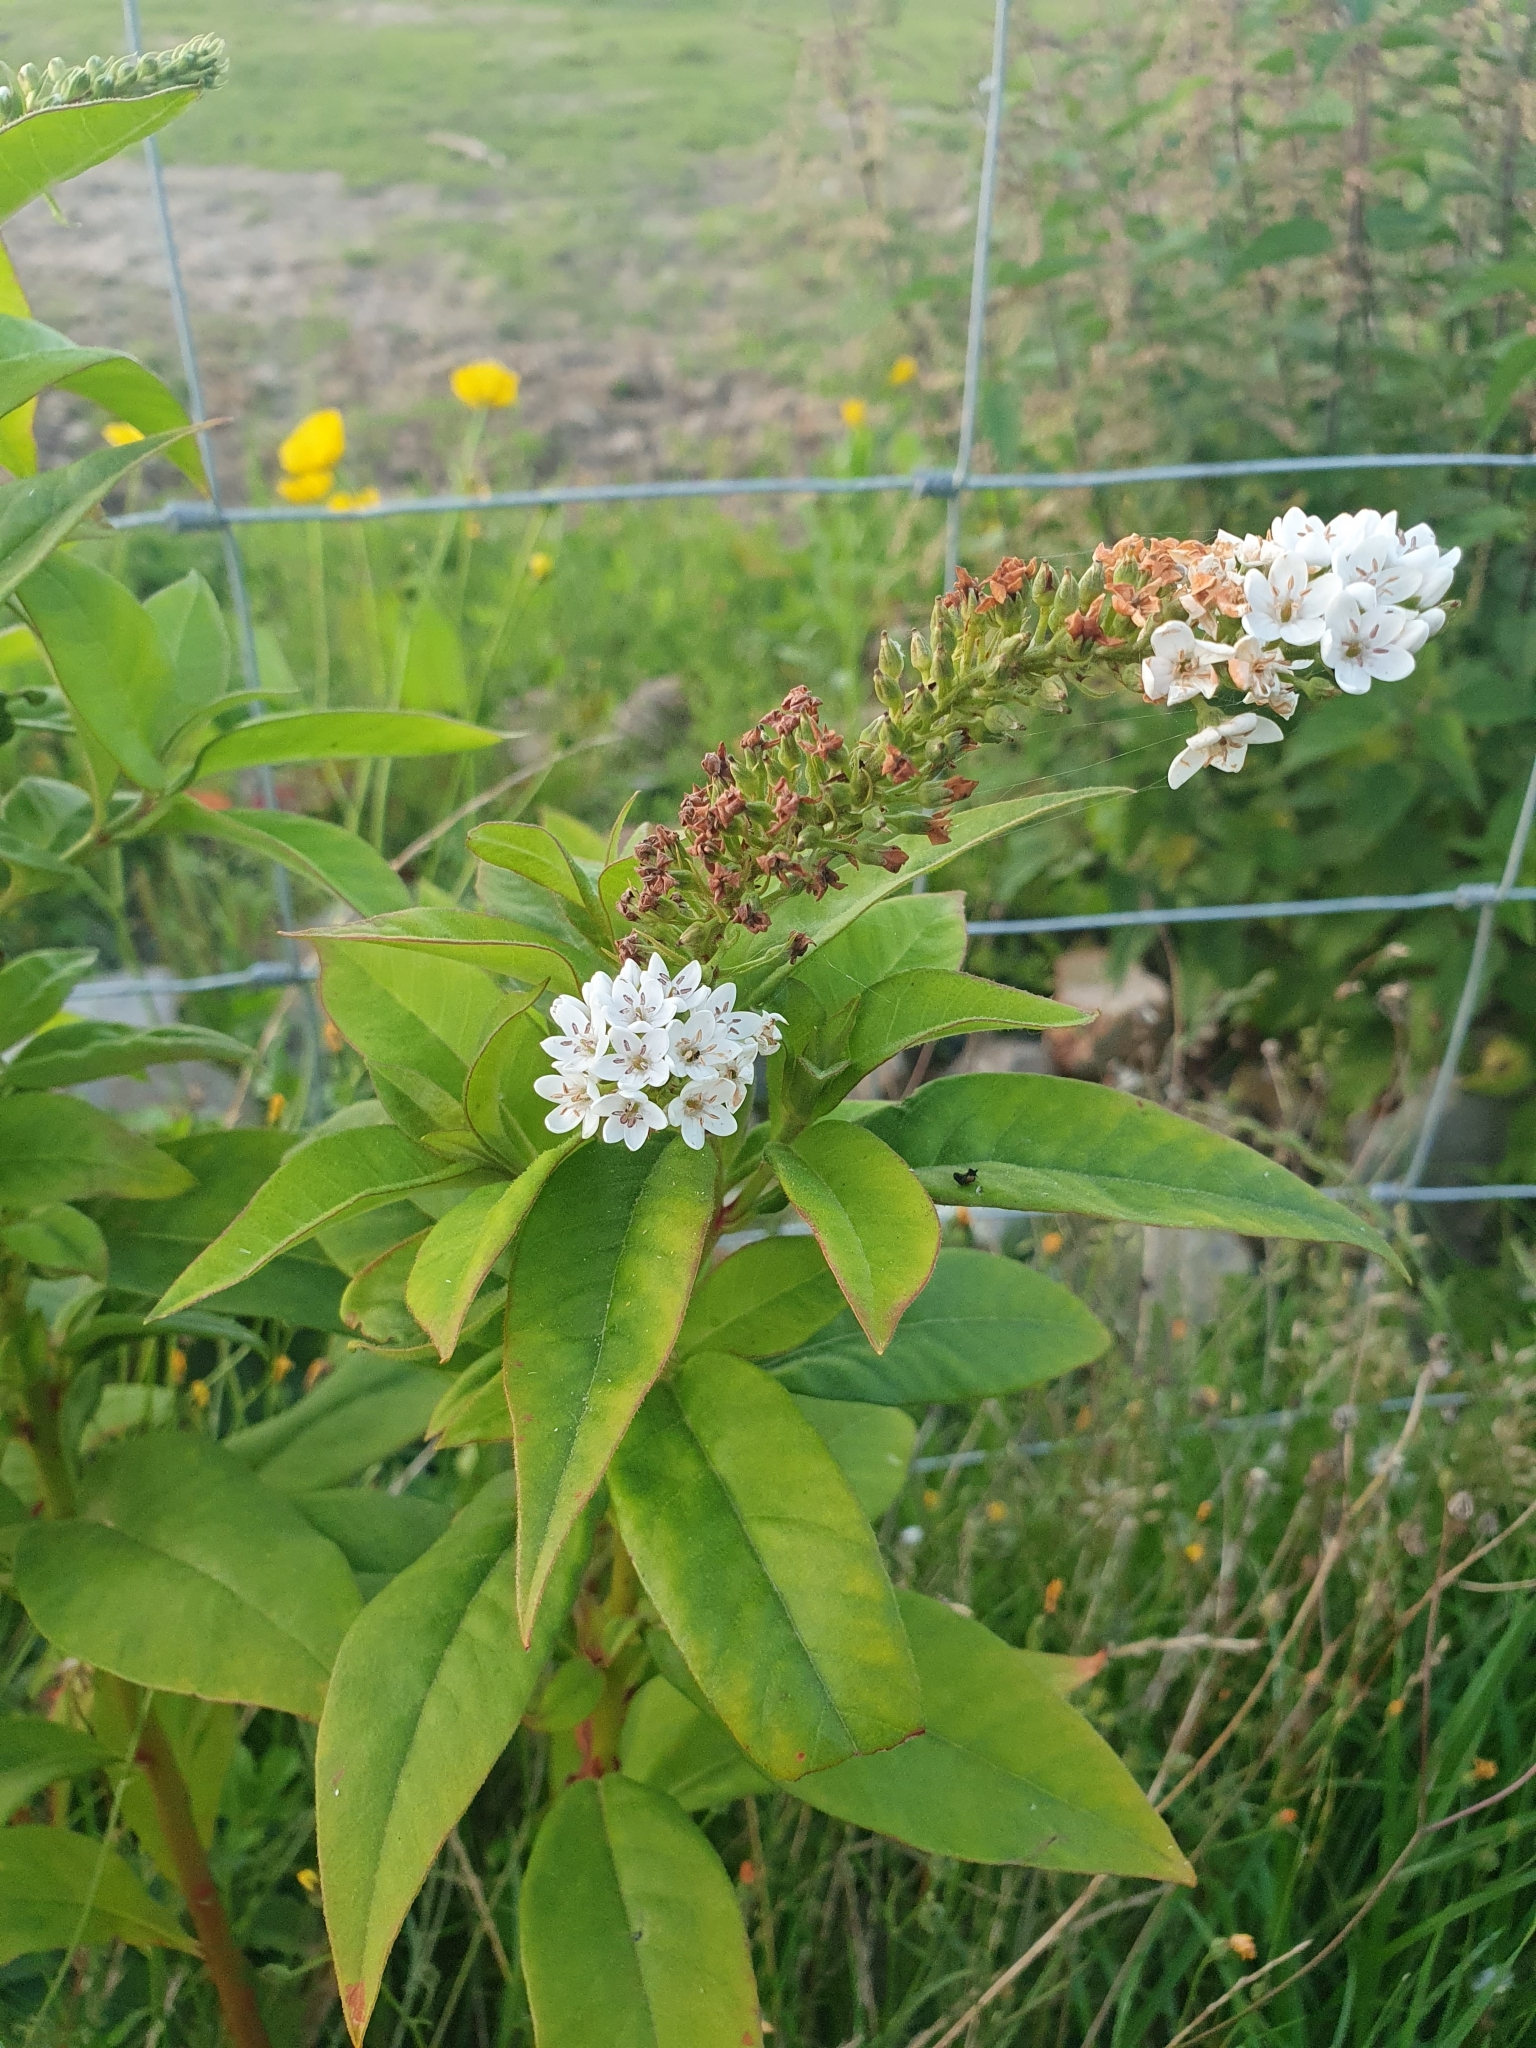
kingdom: Plantae
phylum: Tracheophyta
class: Magnoliopsida
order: Ericales
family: Primulaceae
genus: Lysimachia
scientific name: Lysimachia clethroides
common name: Gooseneck loosestrife
